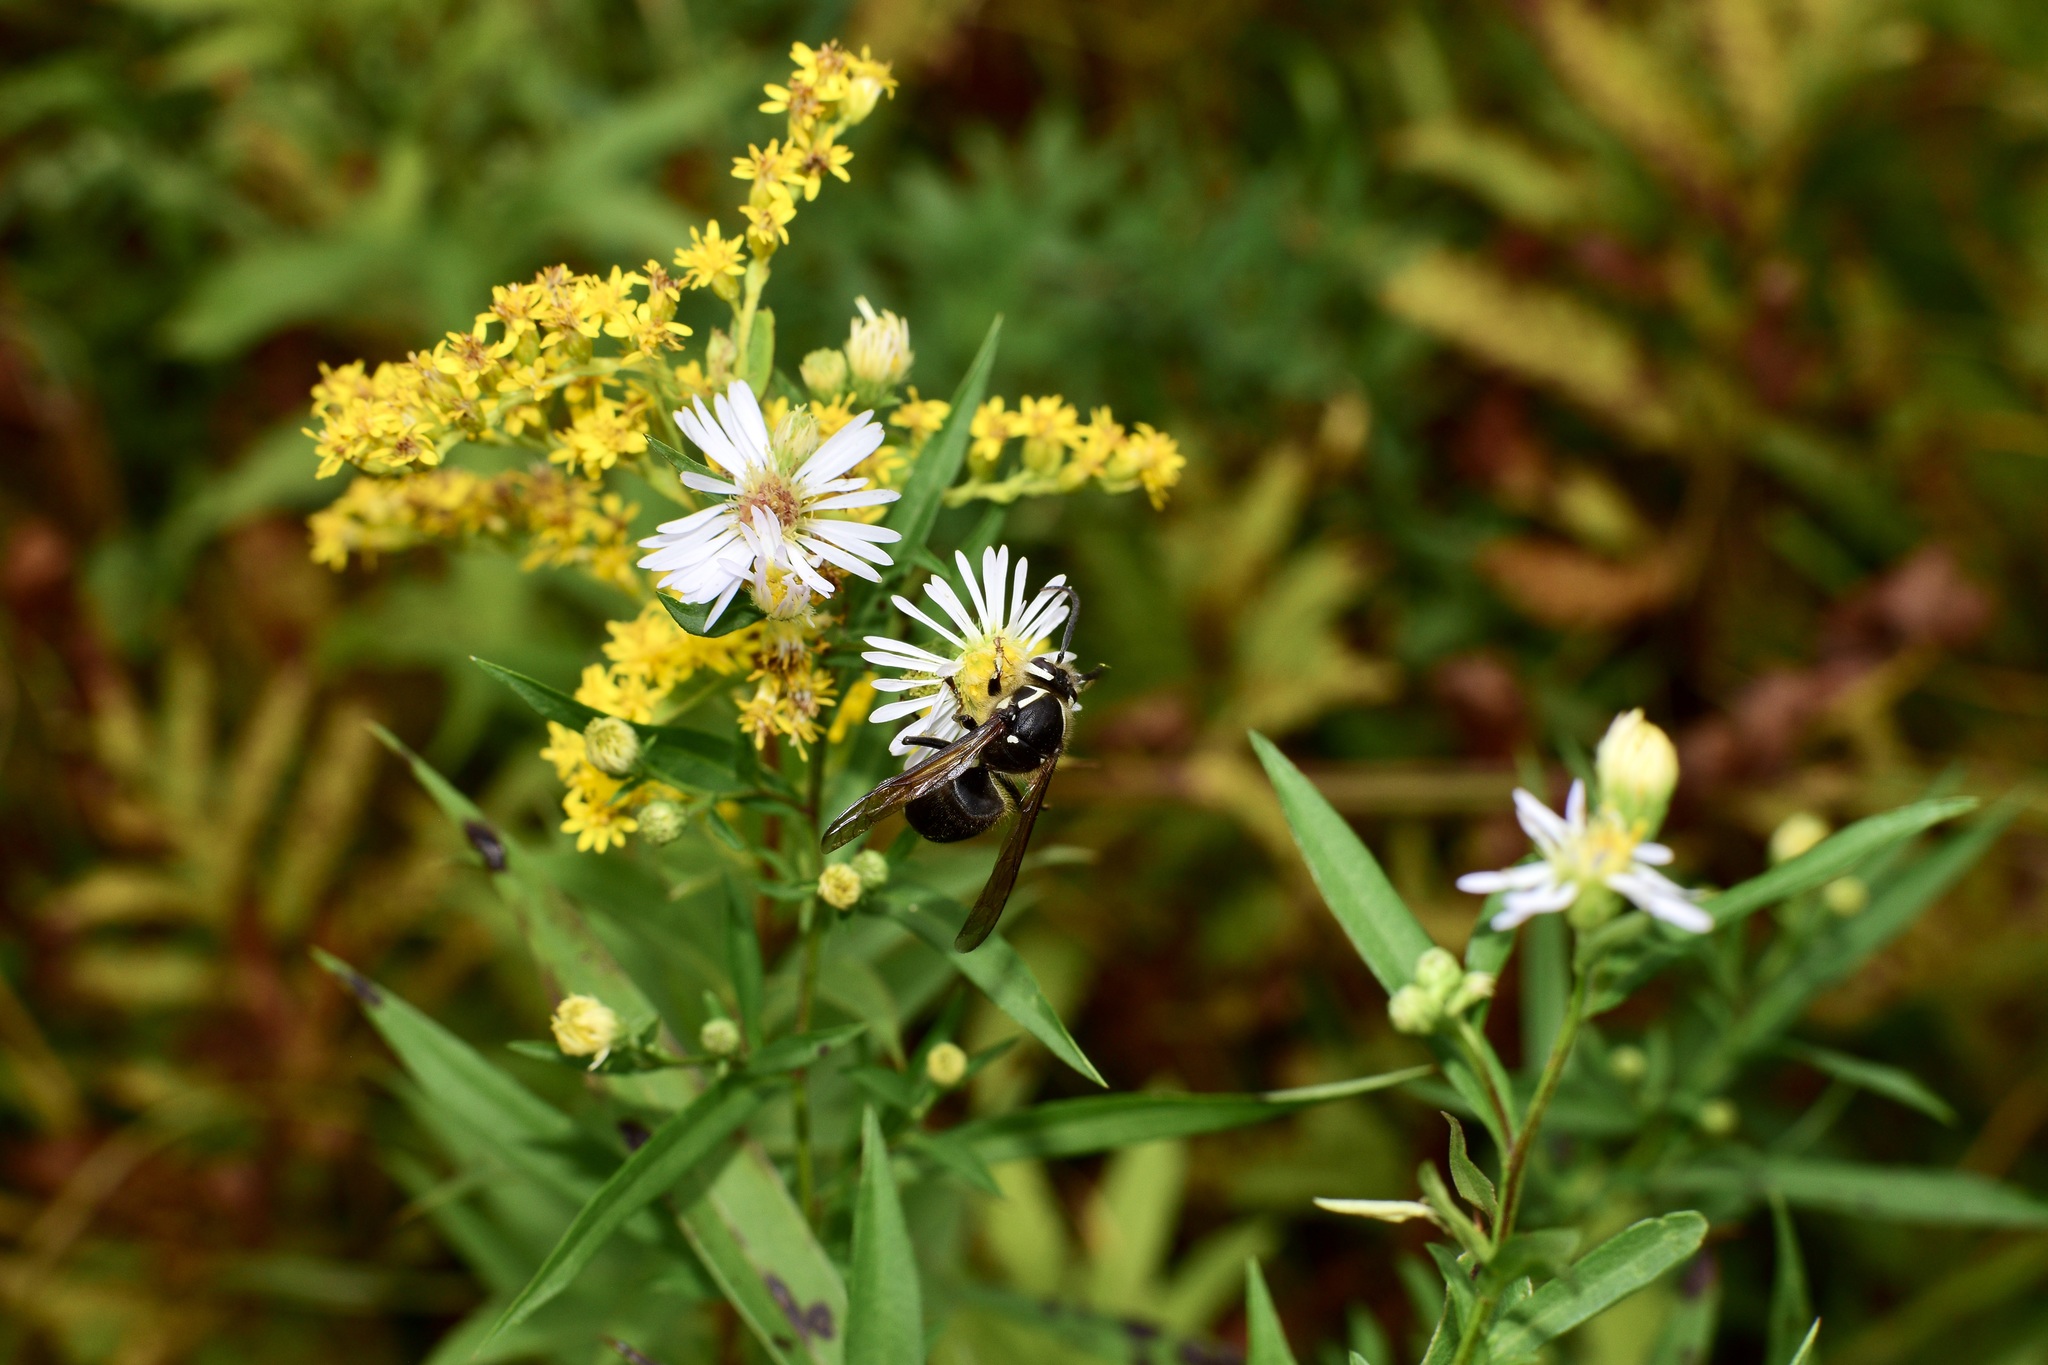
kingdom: Animalia
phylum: Arthropoda
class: Insecta
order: Hymenoptera
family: Vespidae
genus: Dolichovespula
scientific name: Dolichovespula maculata
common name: Bald-faced hornet
